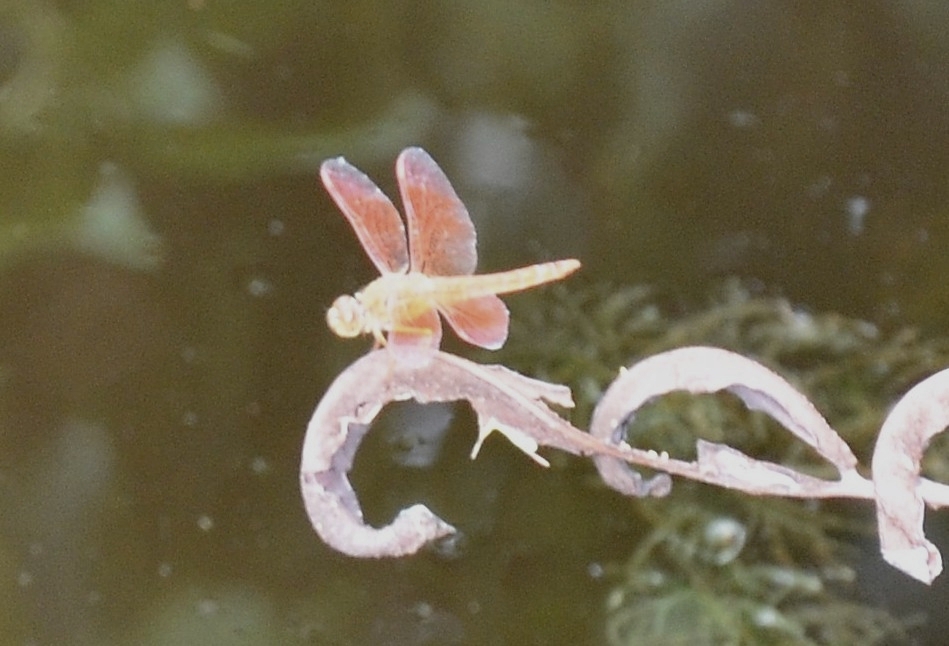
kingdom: Animalia
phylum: Arthropoda
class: Insecta
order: Odonata
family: Libellulidae
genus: Brachythemis
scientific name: Brachythemis contaminata
